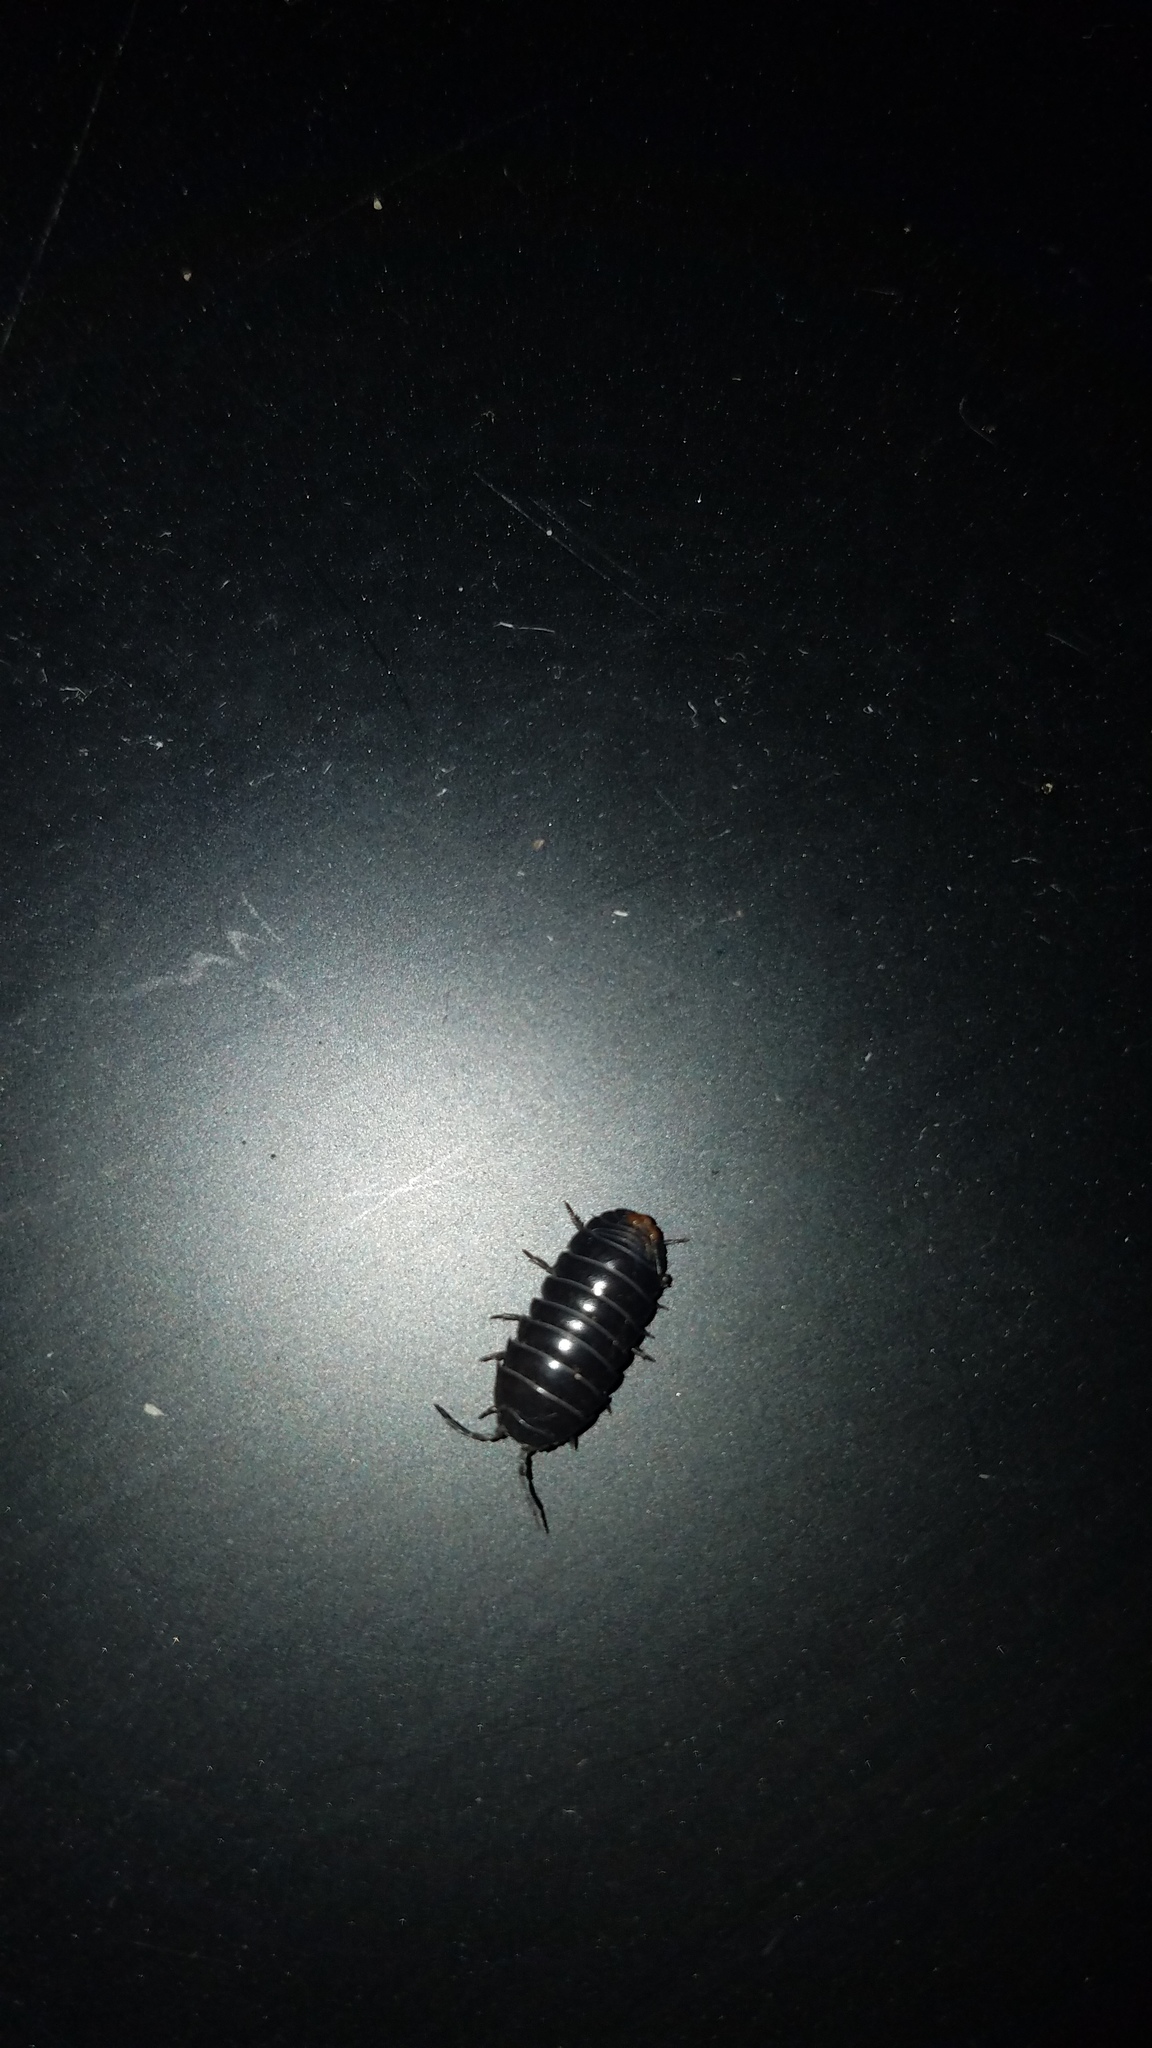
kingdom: Animalia
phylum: Arthropoda
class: Malacostraca
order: Isopoda
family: Armadillidiidae
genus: Armadillidium
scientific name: Armadillidium vulgare
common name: Common pill woodlouse
